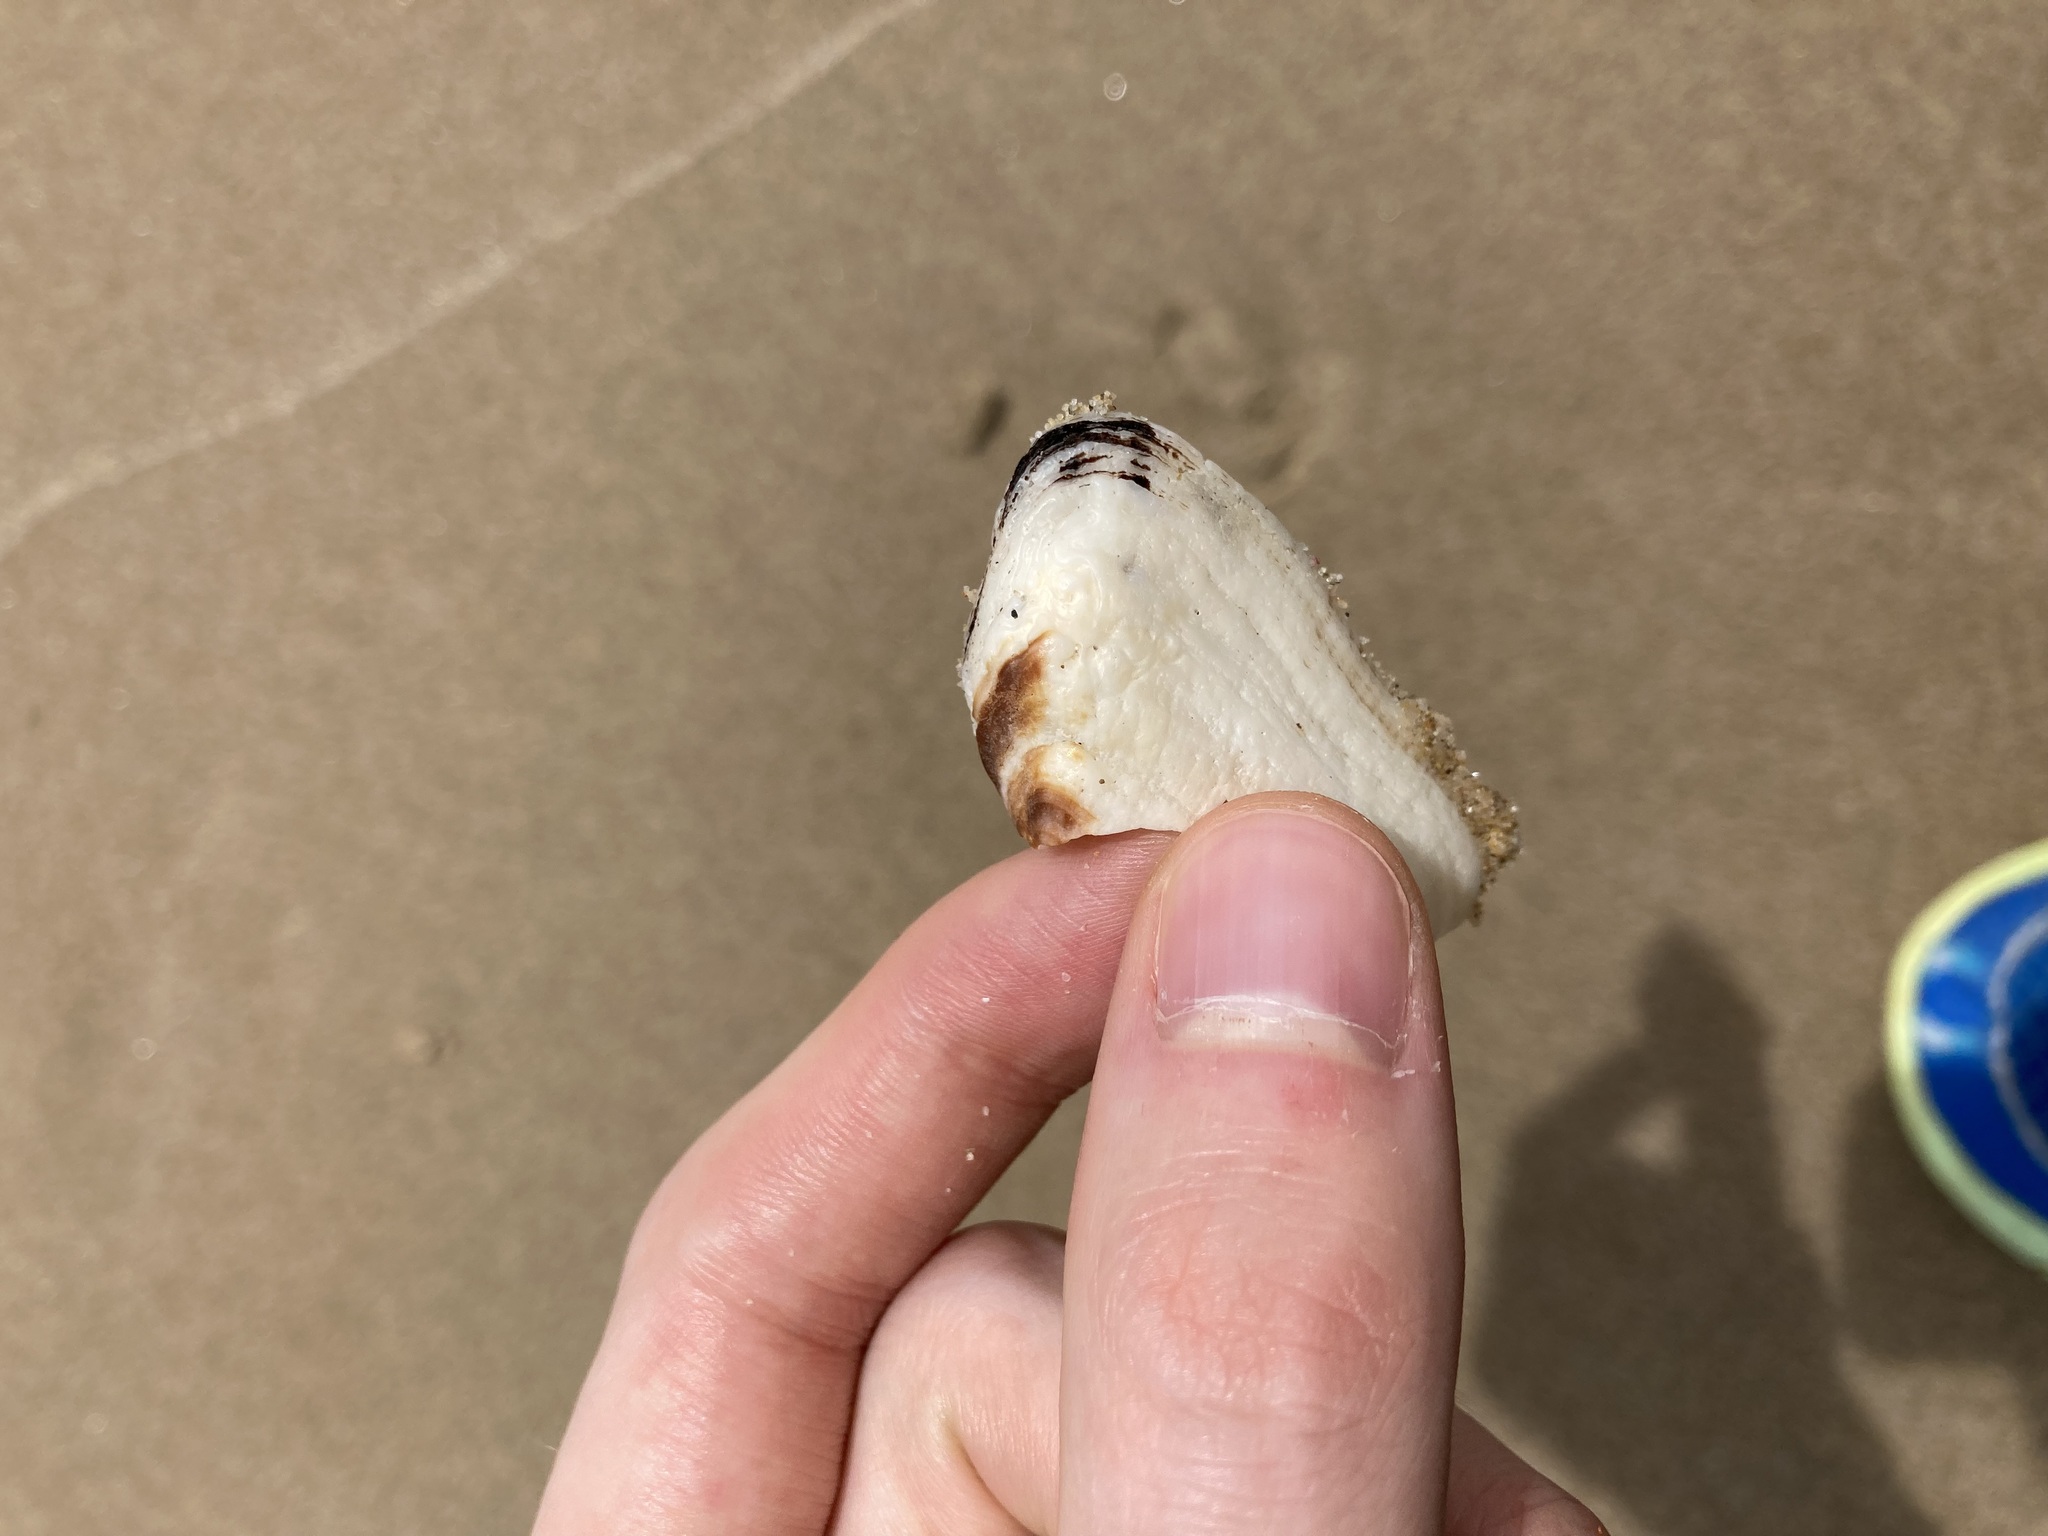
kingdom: Animalia
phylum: Mollusca
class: Bivalvia
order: Arcida
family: Arcidae
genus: Barbatia
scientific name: Barbatia pistachia
